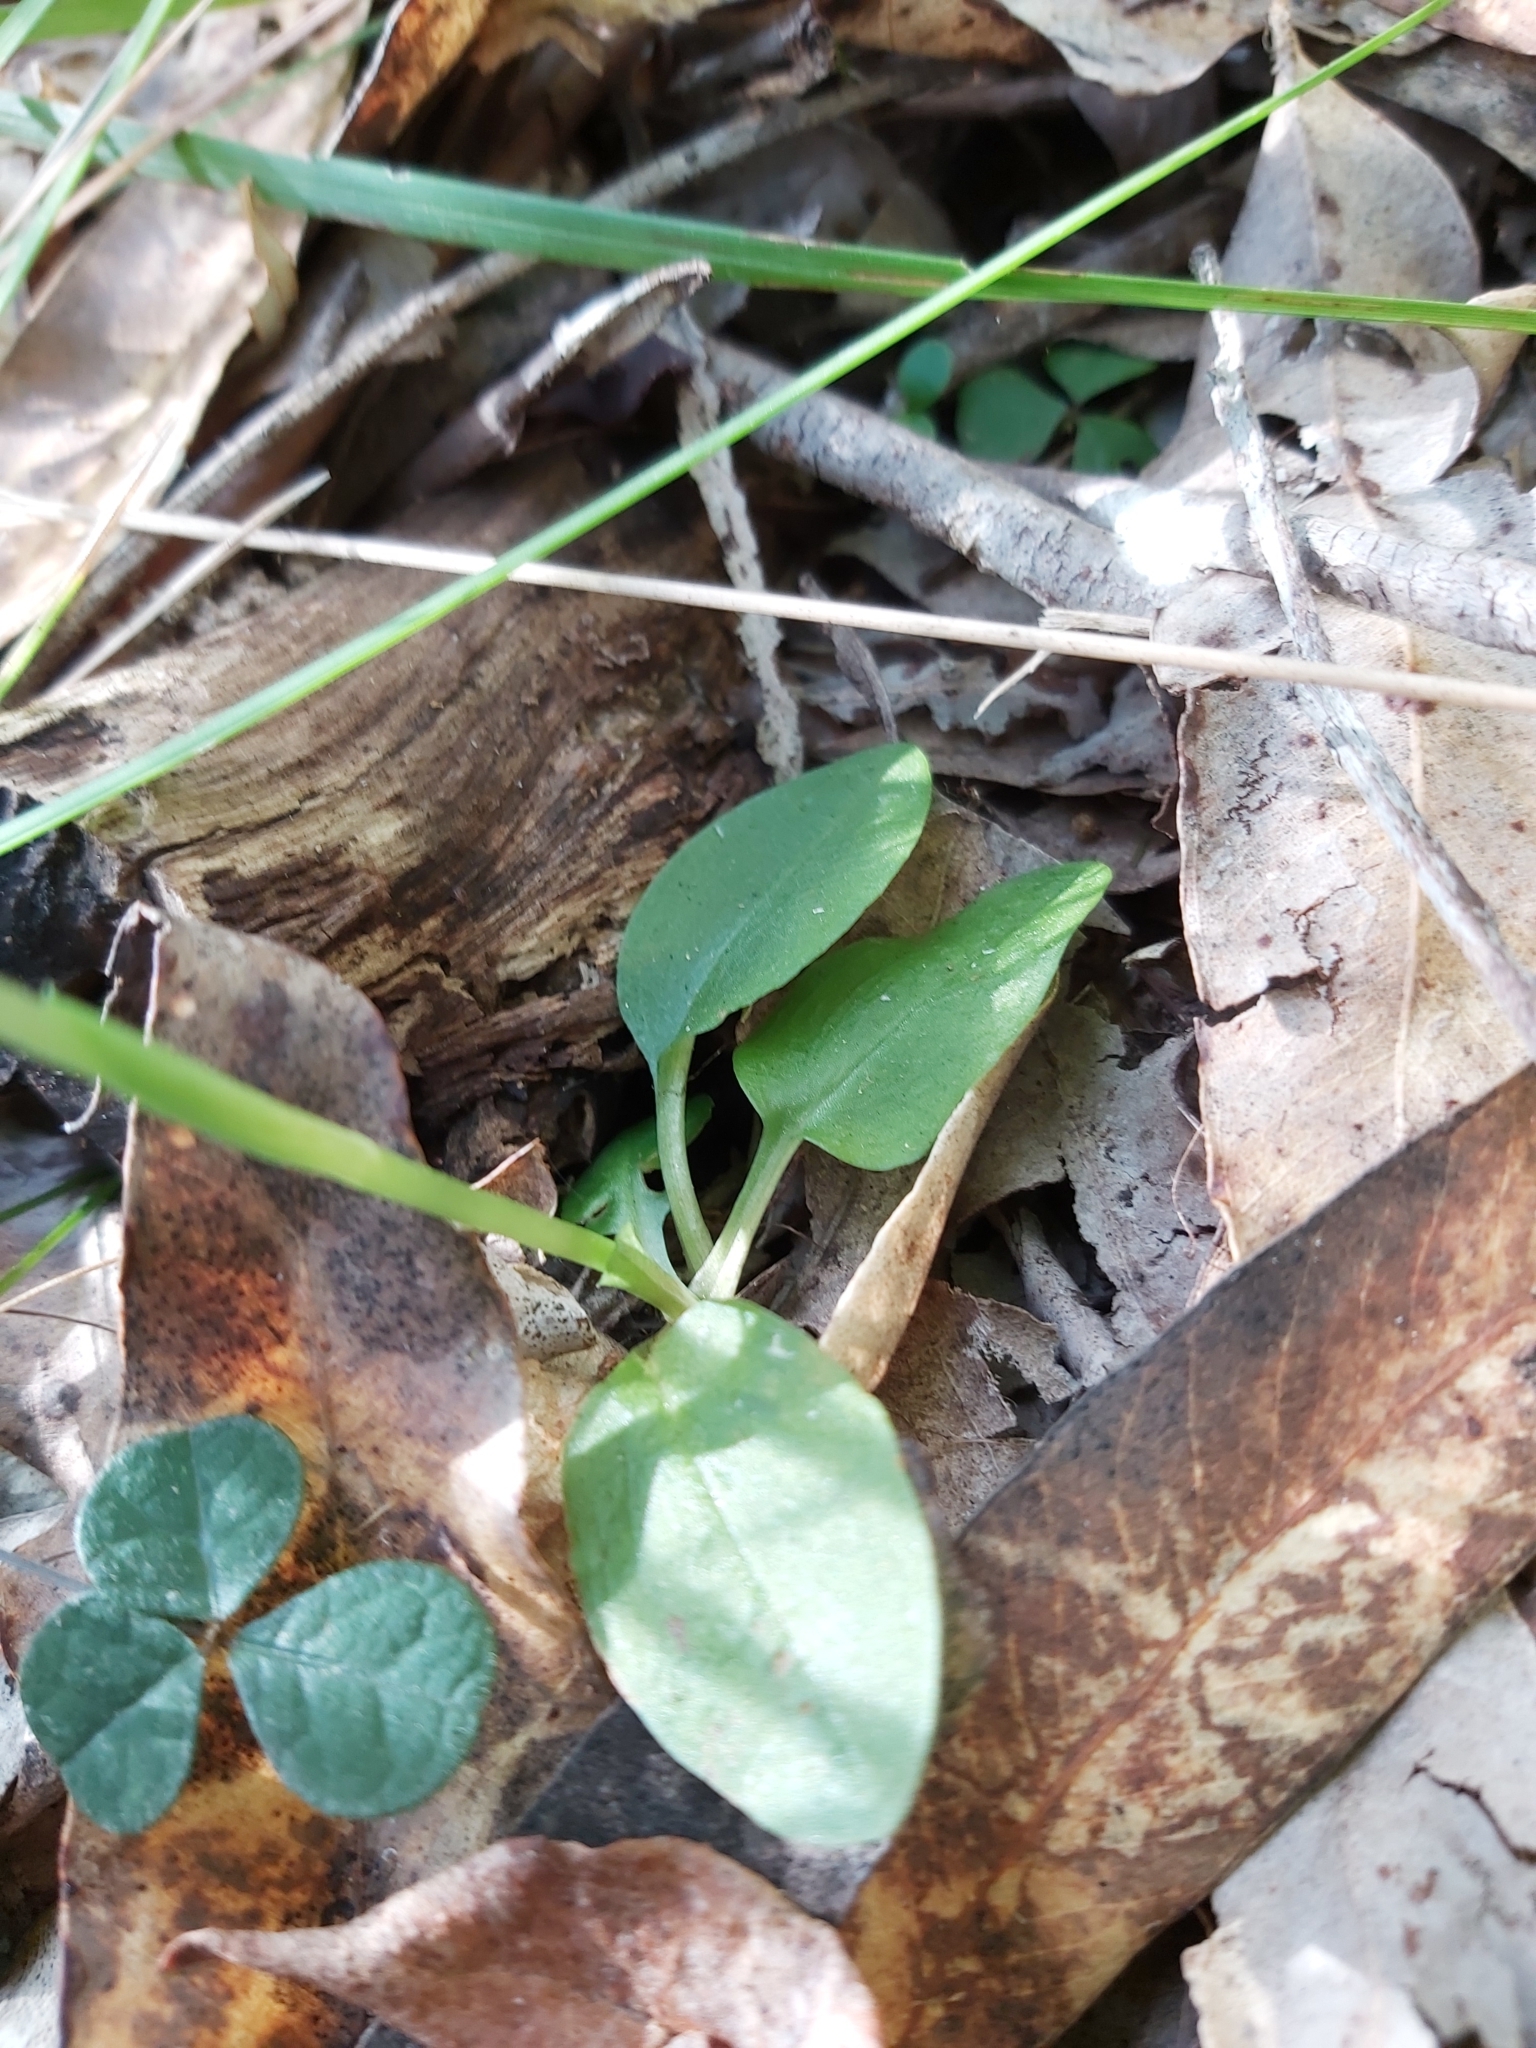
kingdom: Plantae
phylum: Tracheophyta
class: Liliopsida
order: Asparagales
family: Orchidaceae
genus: Pterostylis
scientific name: Pterostylis curta
